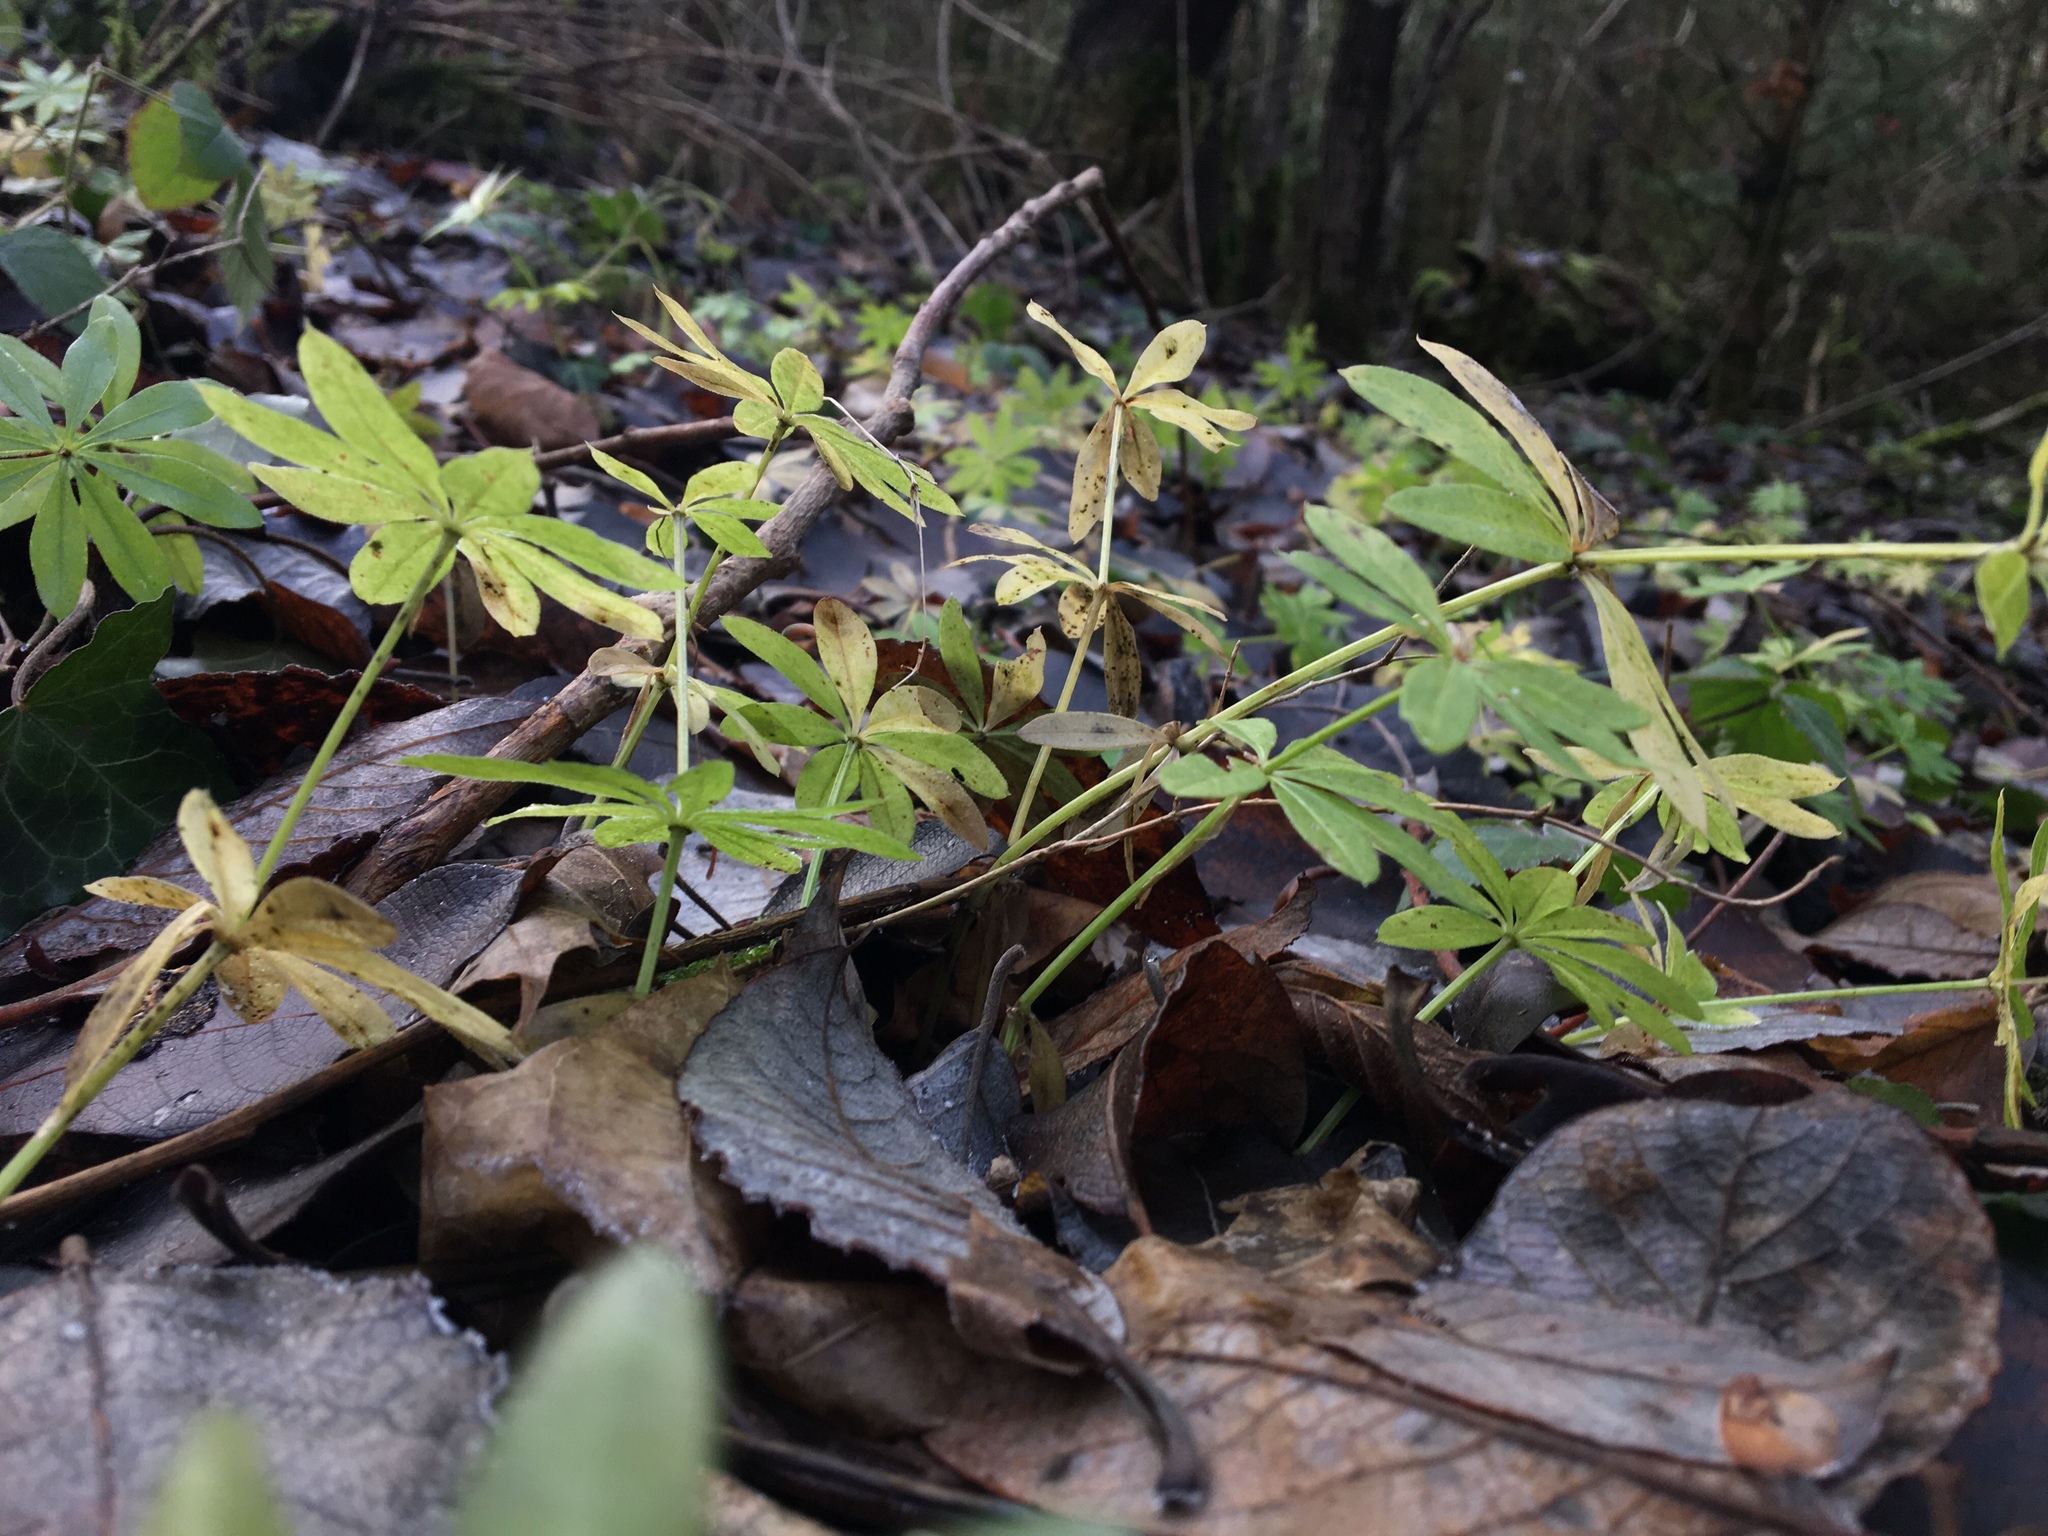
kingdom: Plantae
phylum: Tracheophyta
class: Magnoliopsida
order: Gentianales
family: Rubiaceae
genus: Galium
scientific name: Galium odoratum
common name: Sweet woodruff
